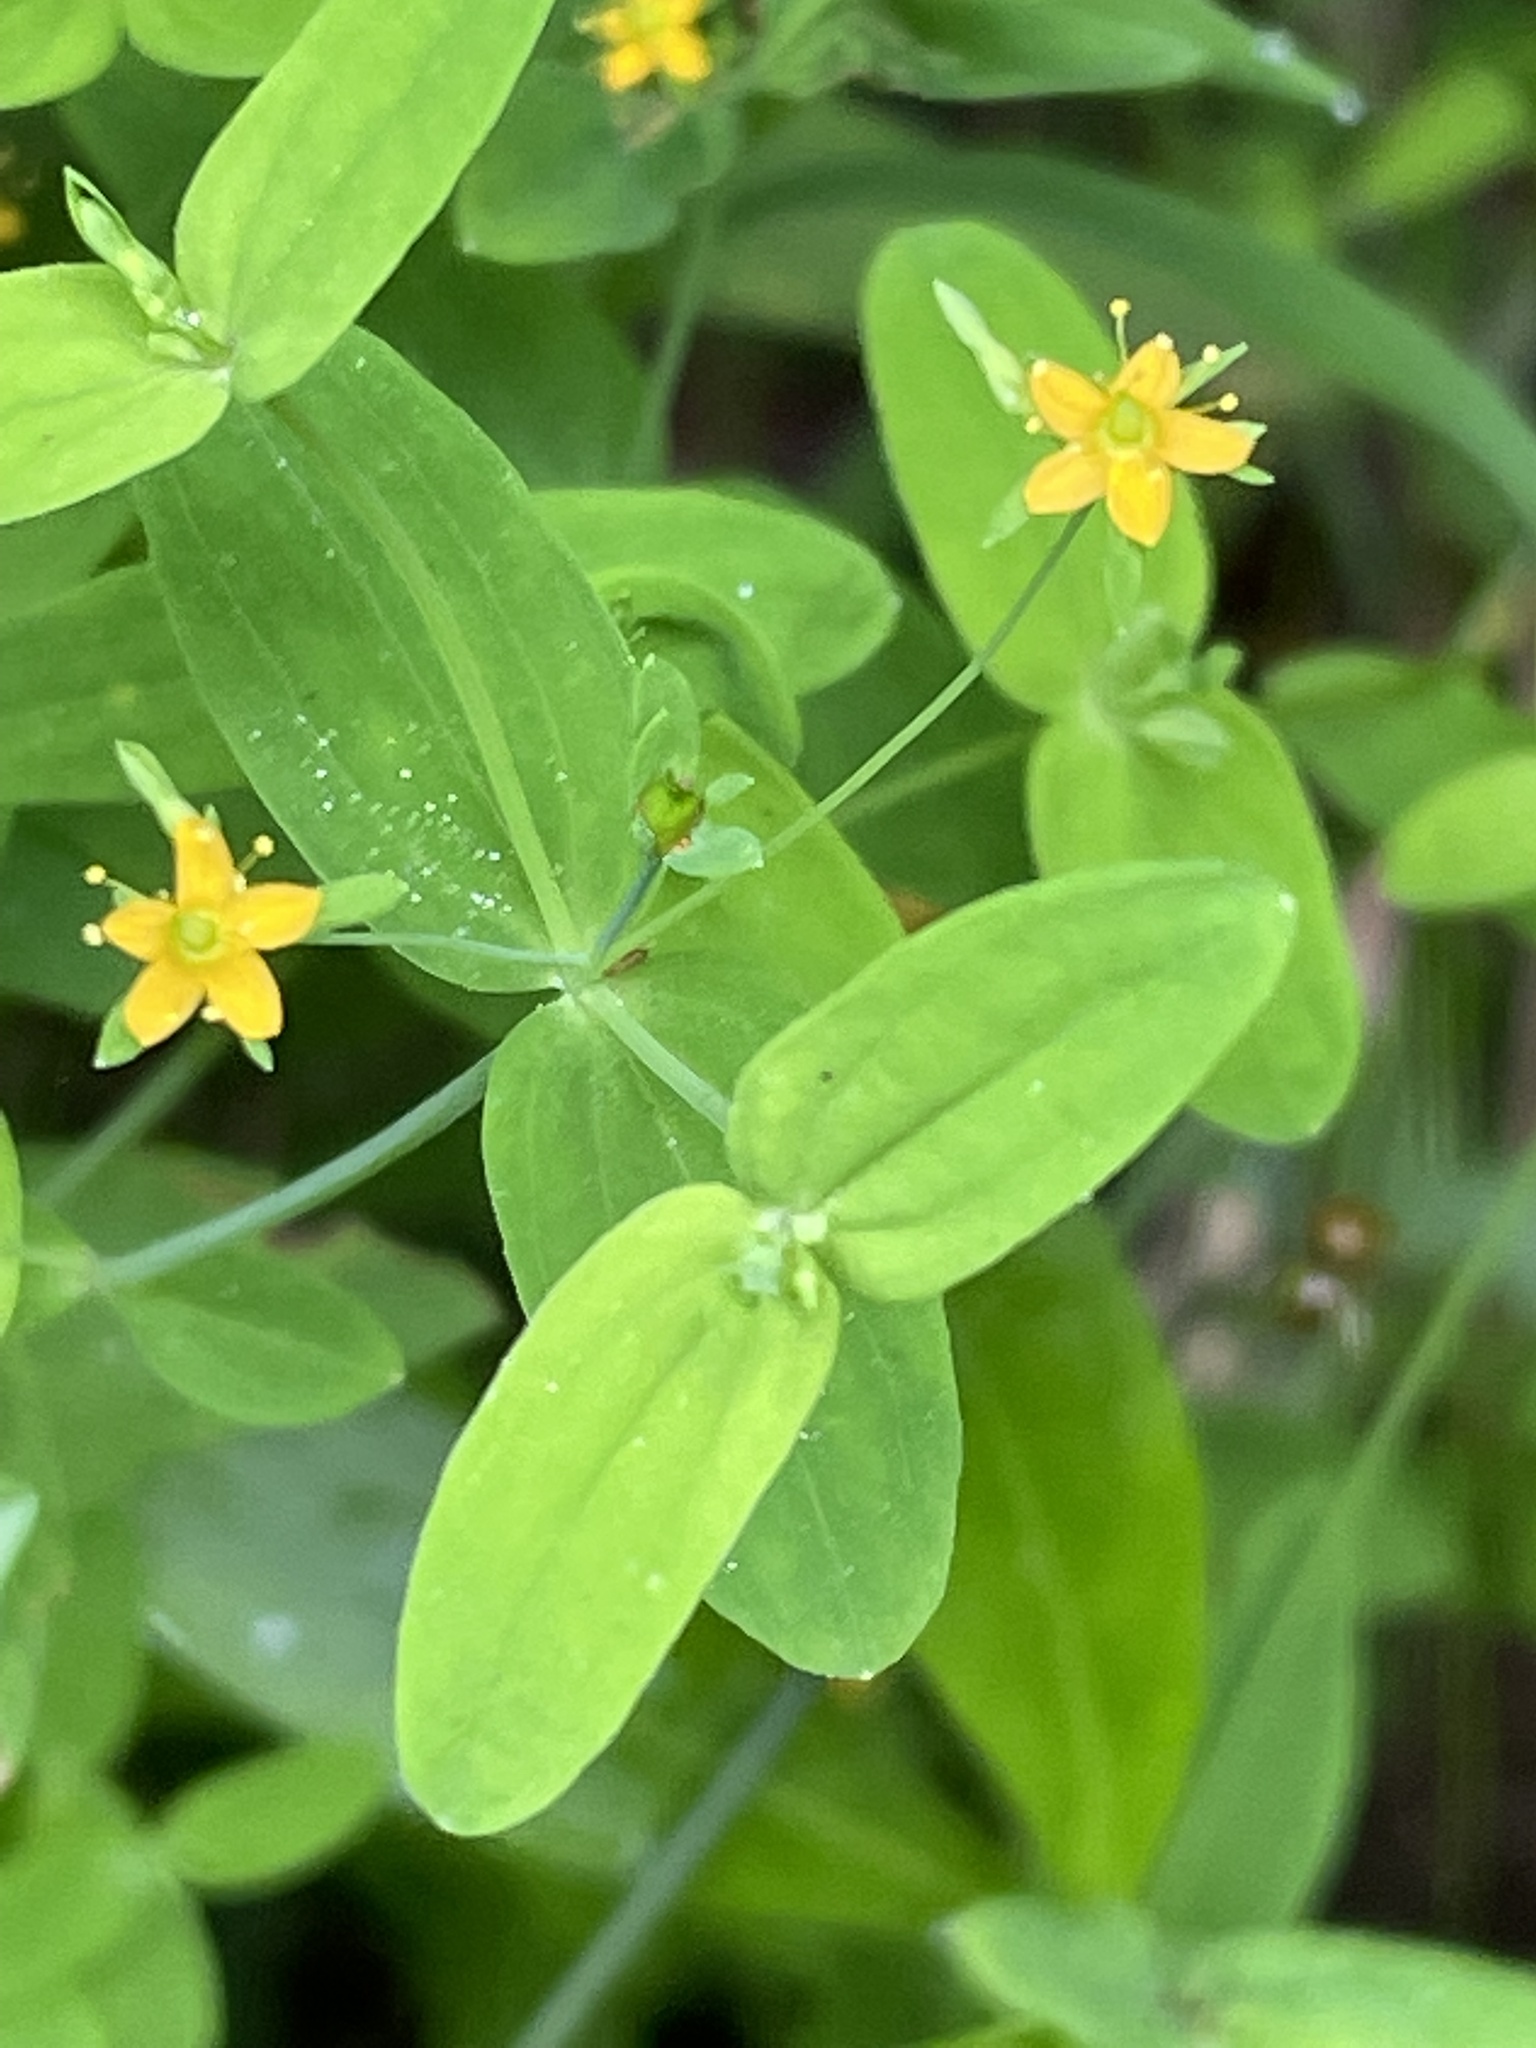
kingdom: Plantae
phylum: Tracheophyta
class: Magnoliopsida
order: Malpighiales
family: Hypericaceae
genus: Hypericum
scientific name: Hypericum mutilum
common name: Dwarf st. john's-wort
